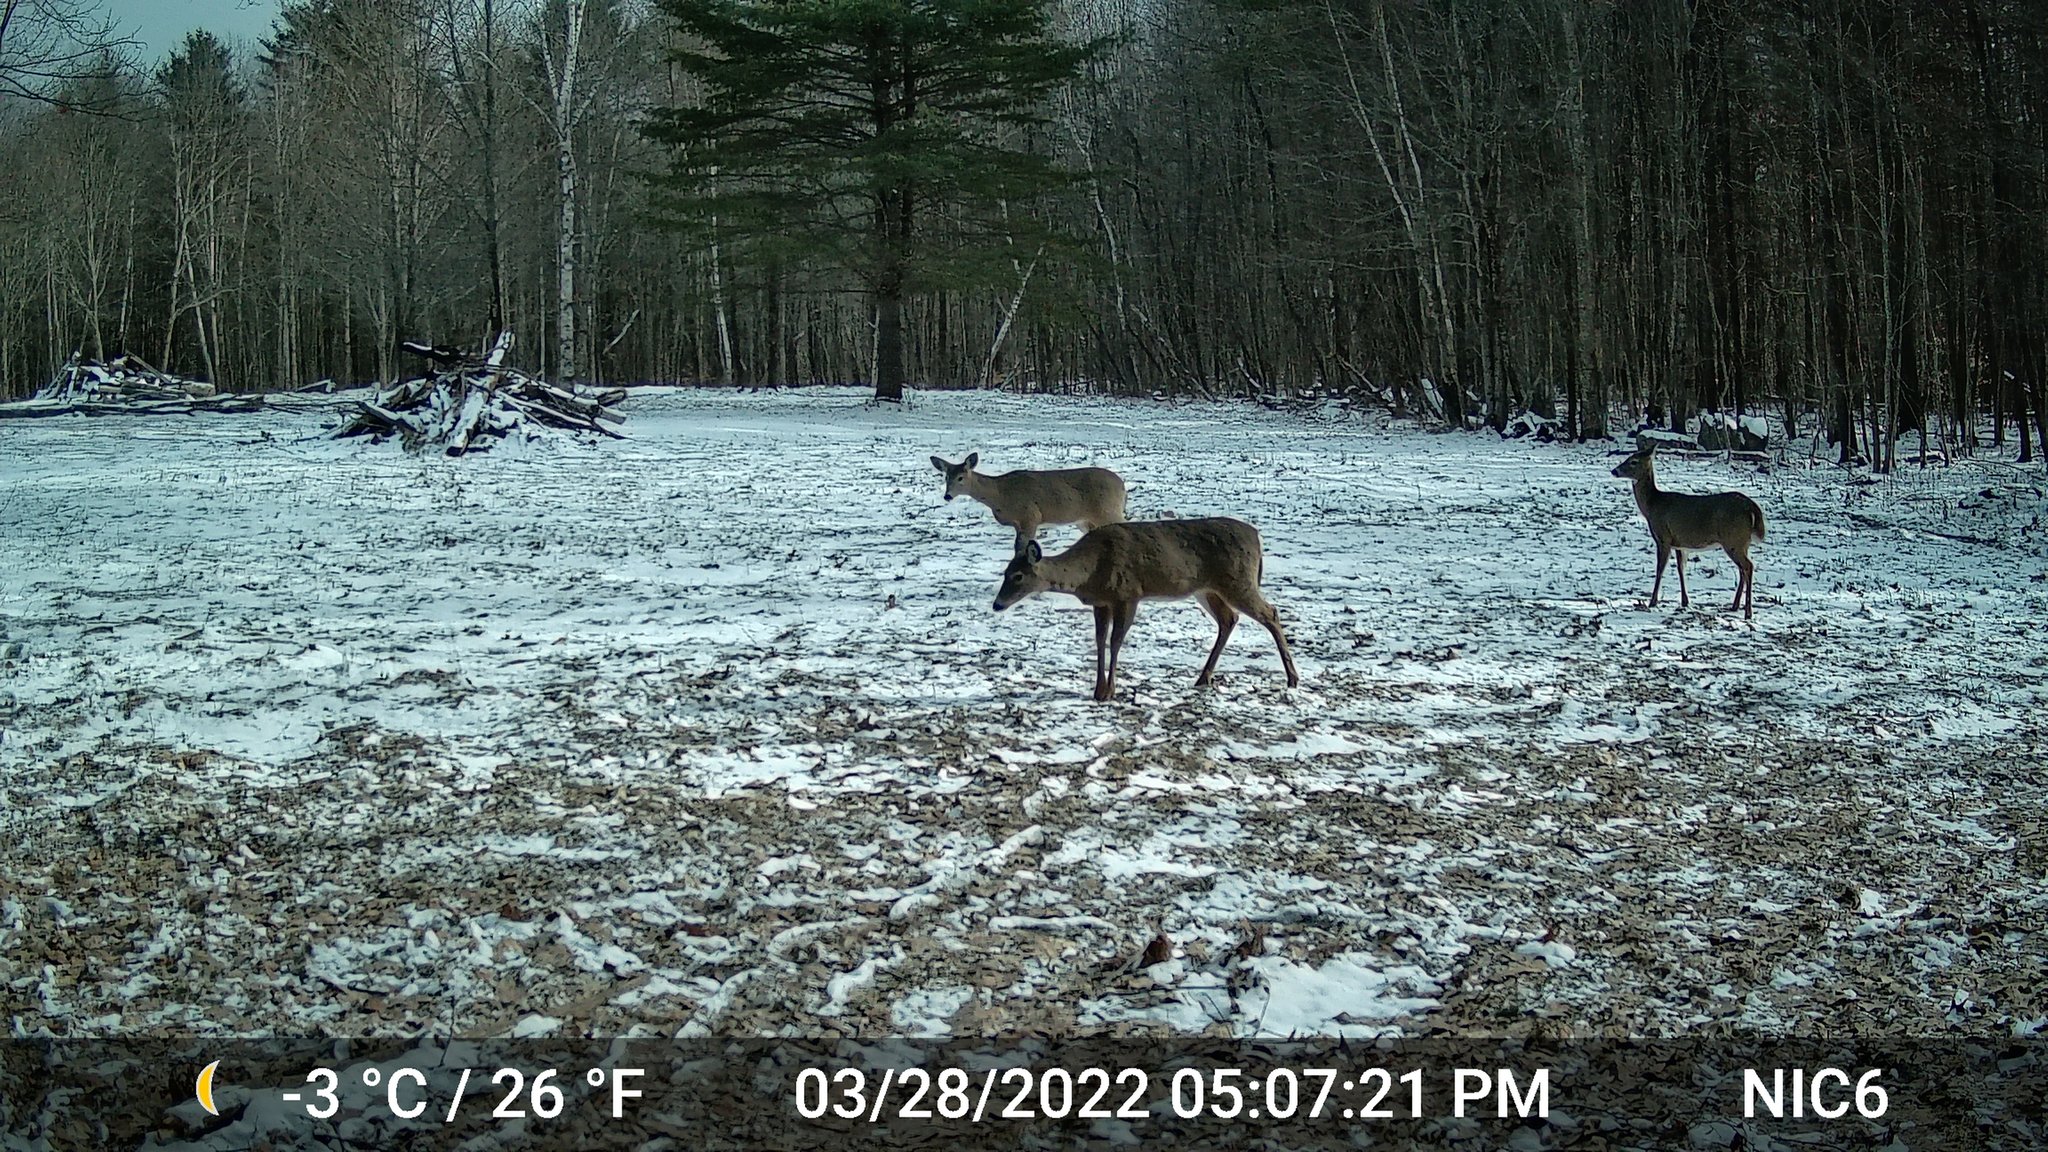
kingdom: Animalia
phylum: Chordata
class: Mammalia
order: Artiodactyla
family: Cervidae
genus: Odocoileus
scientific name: Odocoileus virginianus
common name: White-tailed deer
